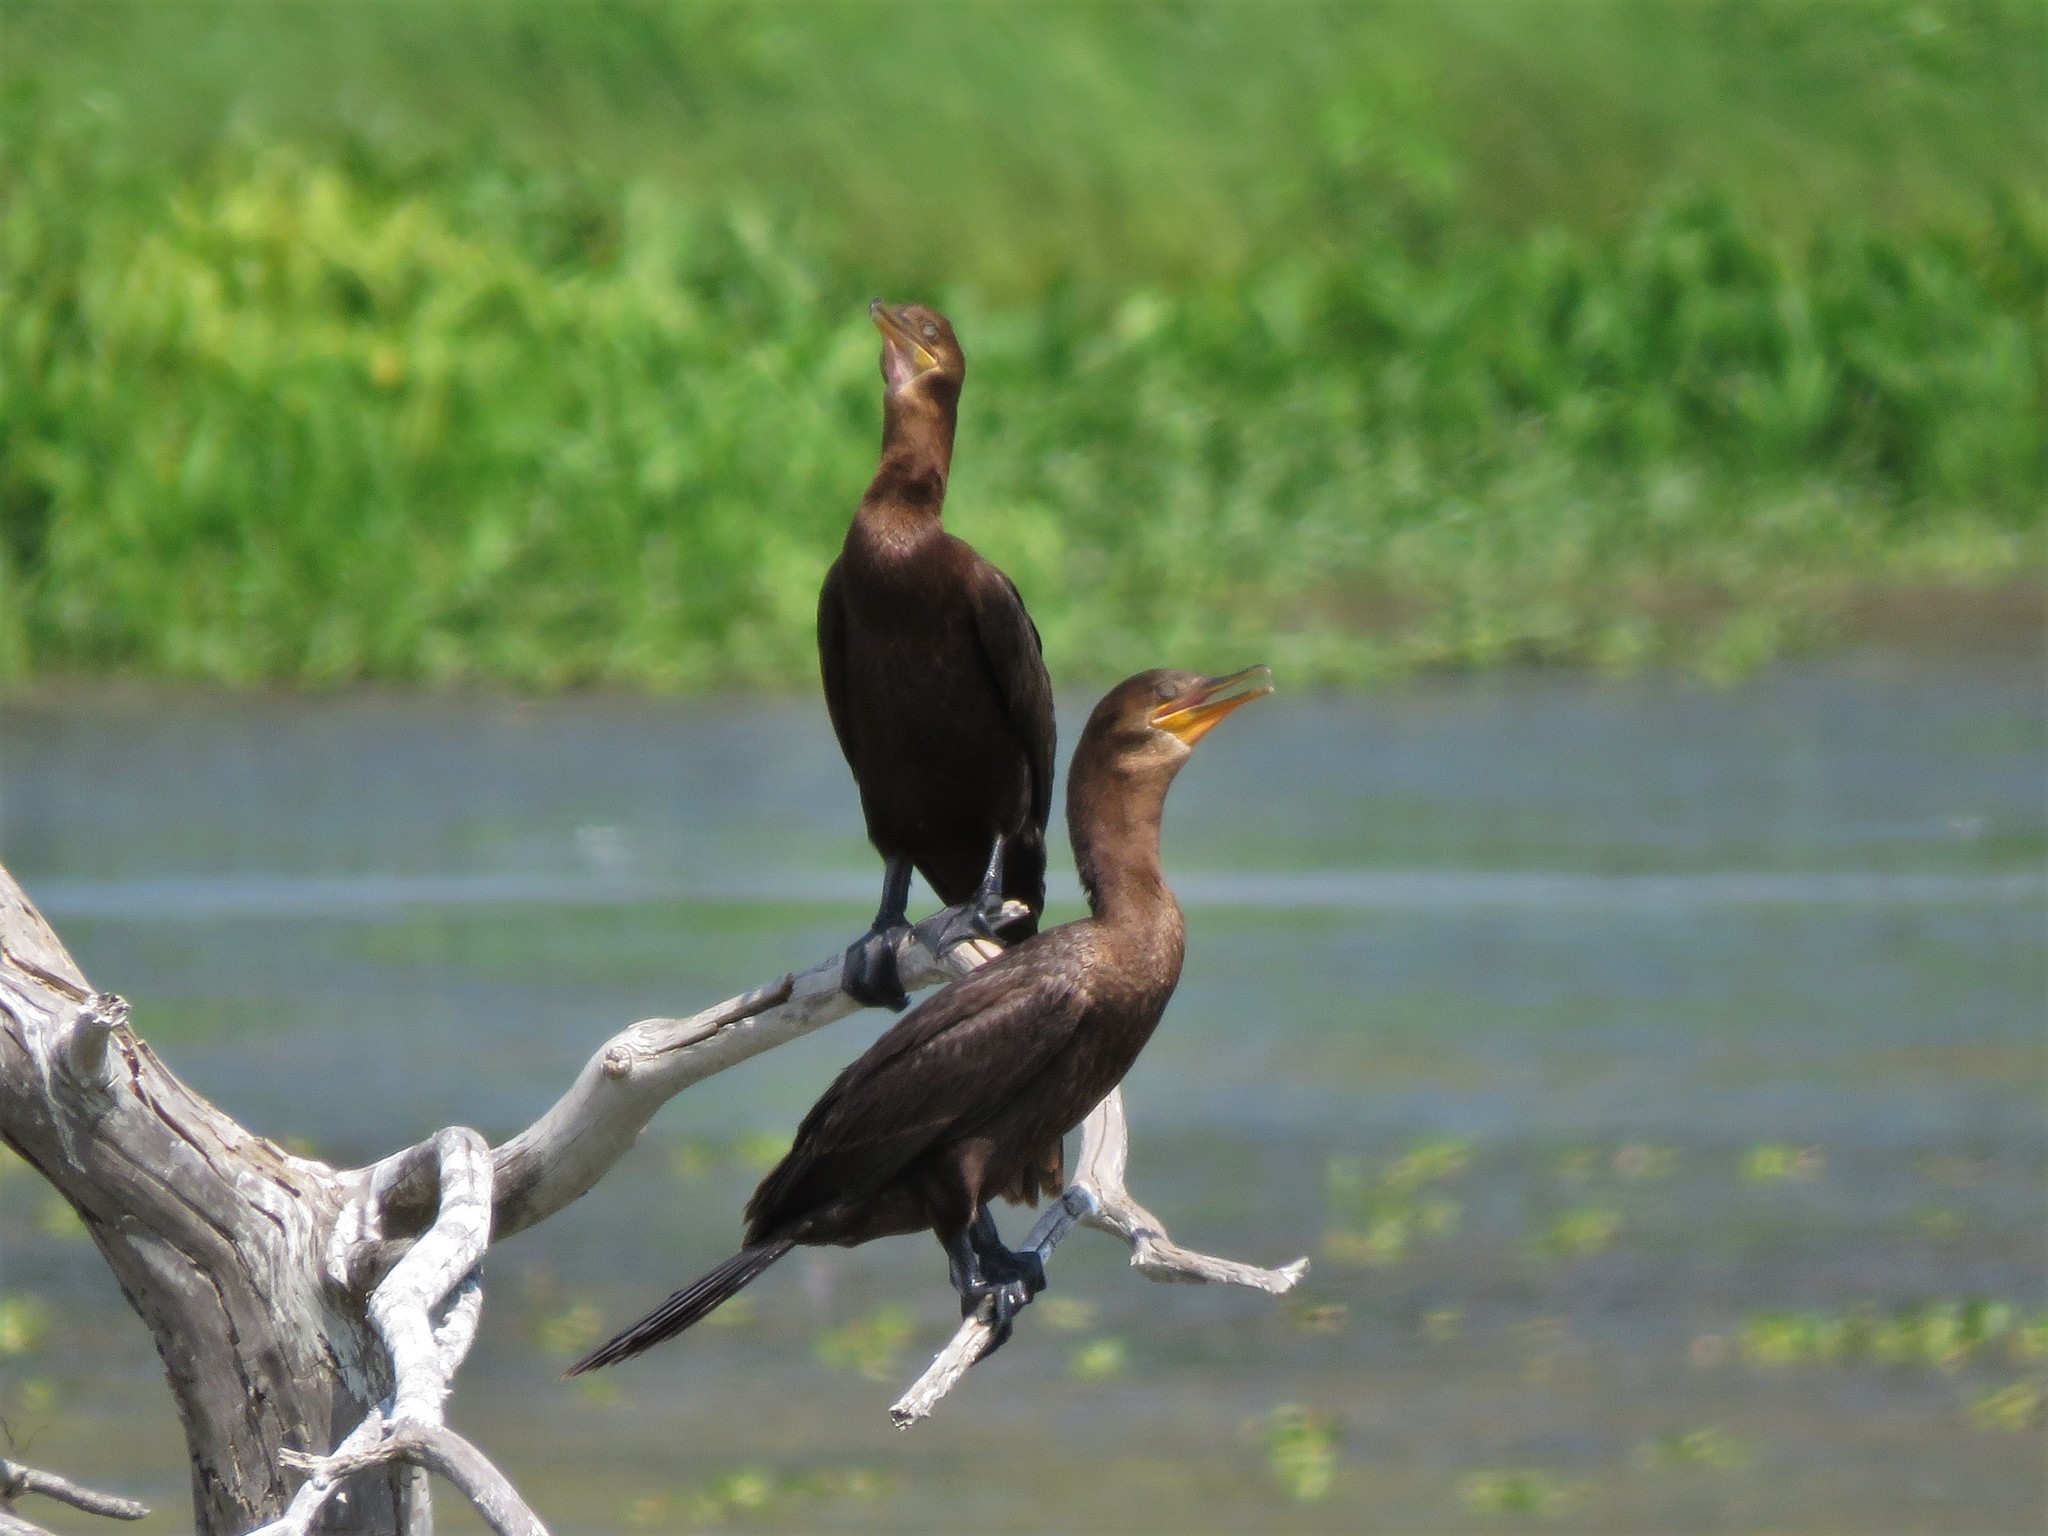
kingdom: Animalia
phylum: Chordata
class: Aves
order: Suliformes
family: Phalacrocoracidae
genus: Phalacrocorax
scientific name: Phalacrocorax brasilianus
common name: Neotropic cormorant
